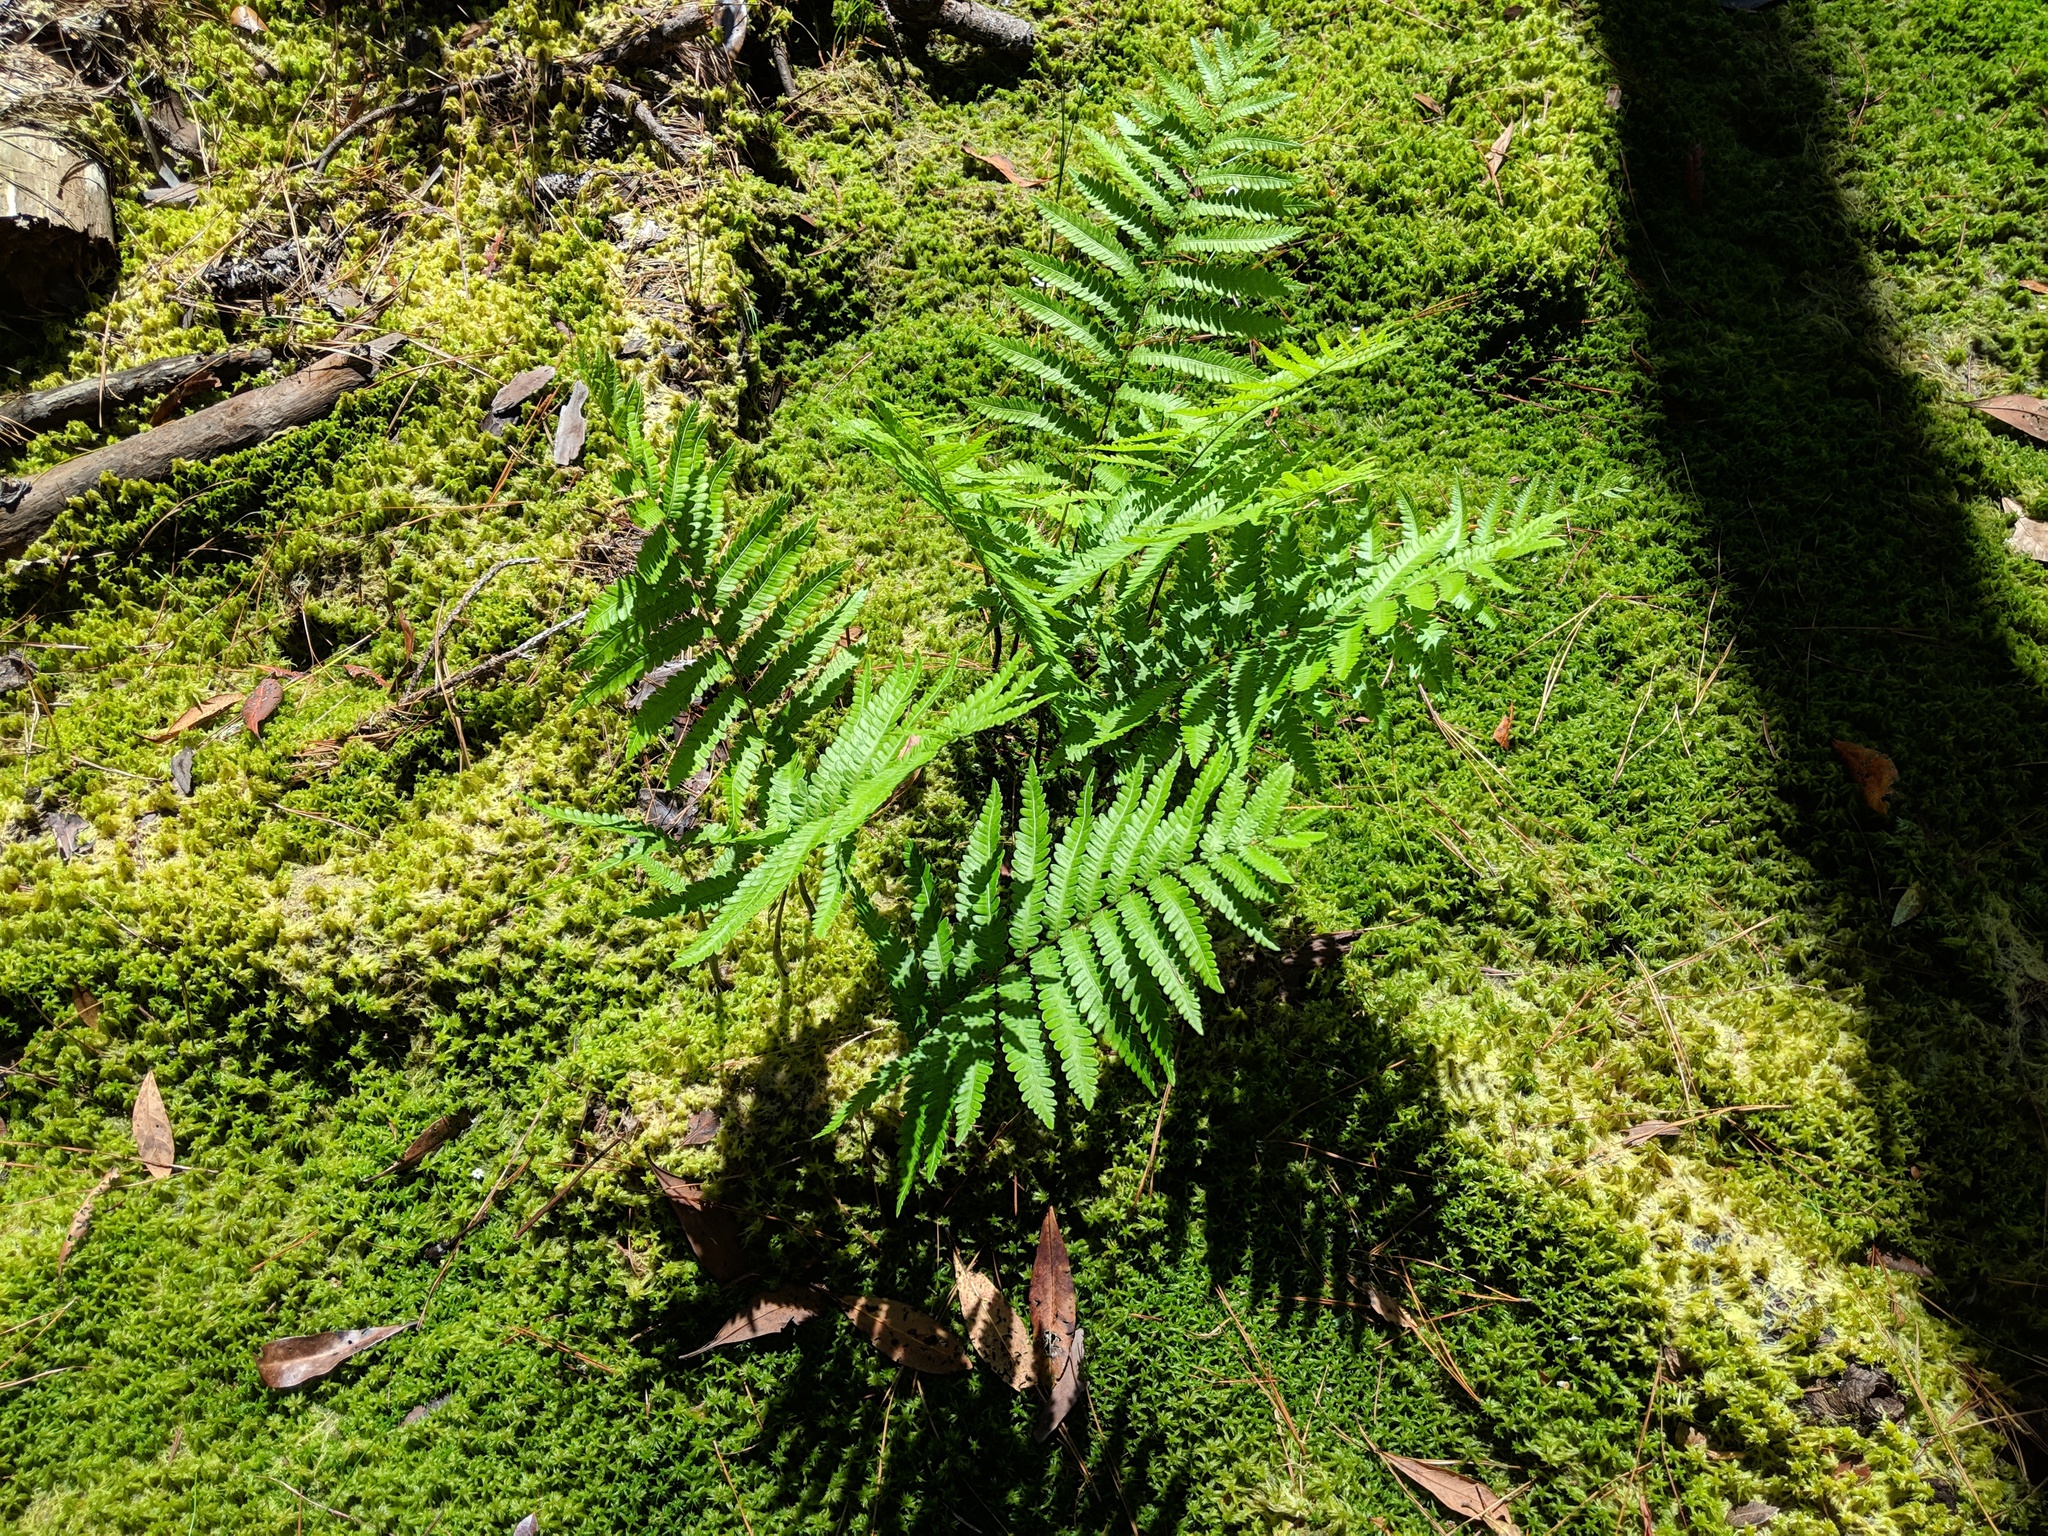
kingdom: Plantae
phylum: Tracheophyta
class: Polypodiopsida
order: Polypodiales
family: Blechnaceae
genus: Anchistea
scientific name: Anchistea virginica
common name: Virginia chain fern
